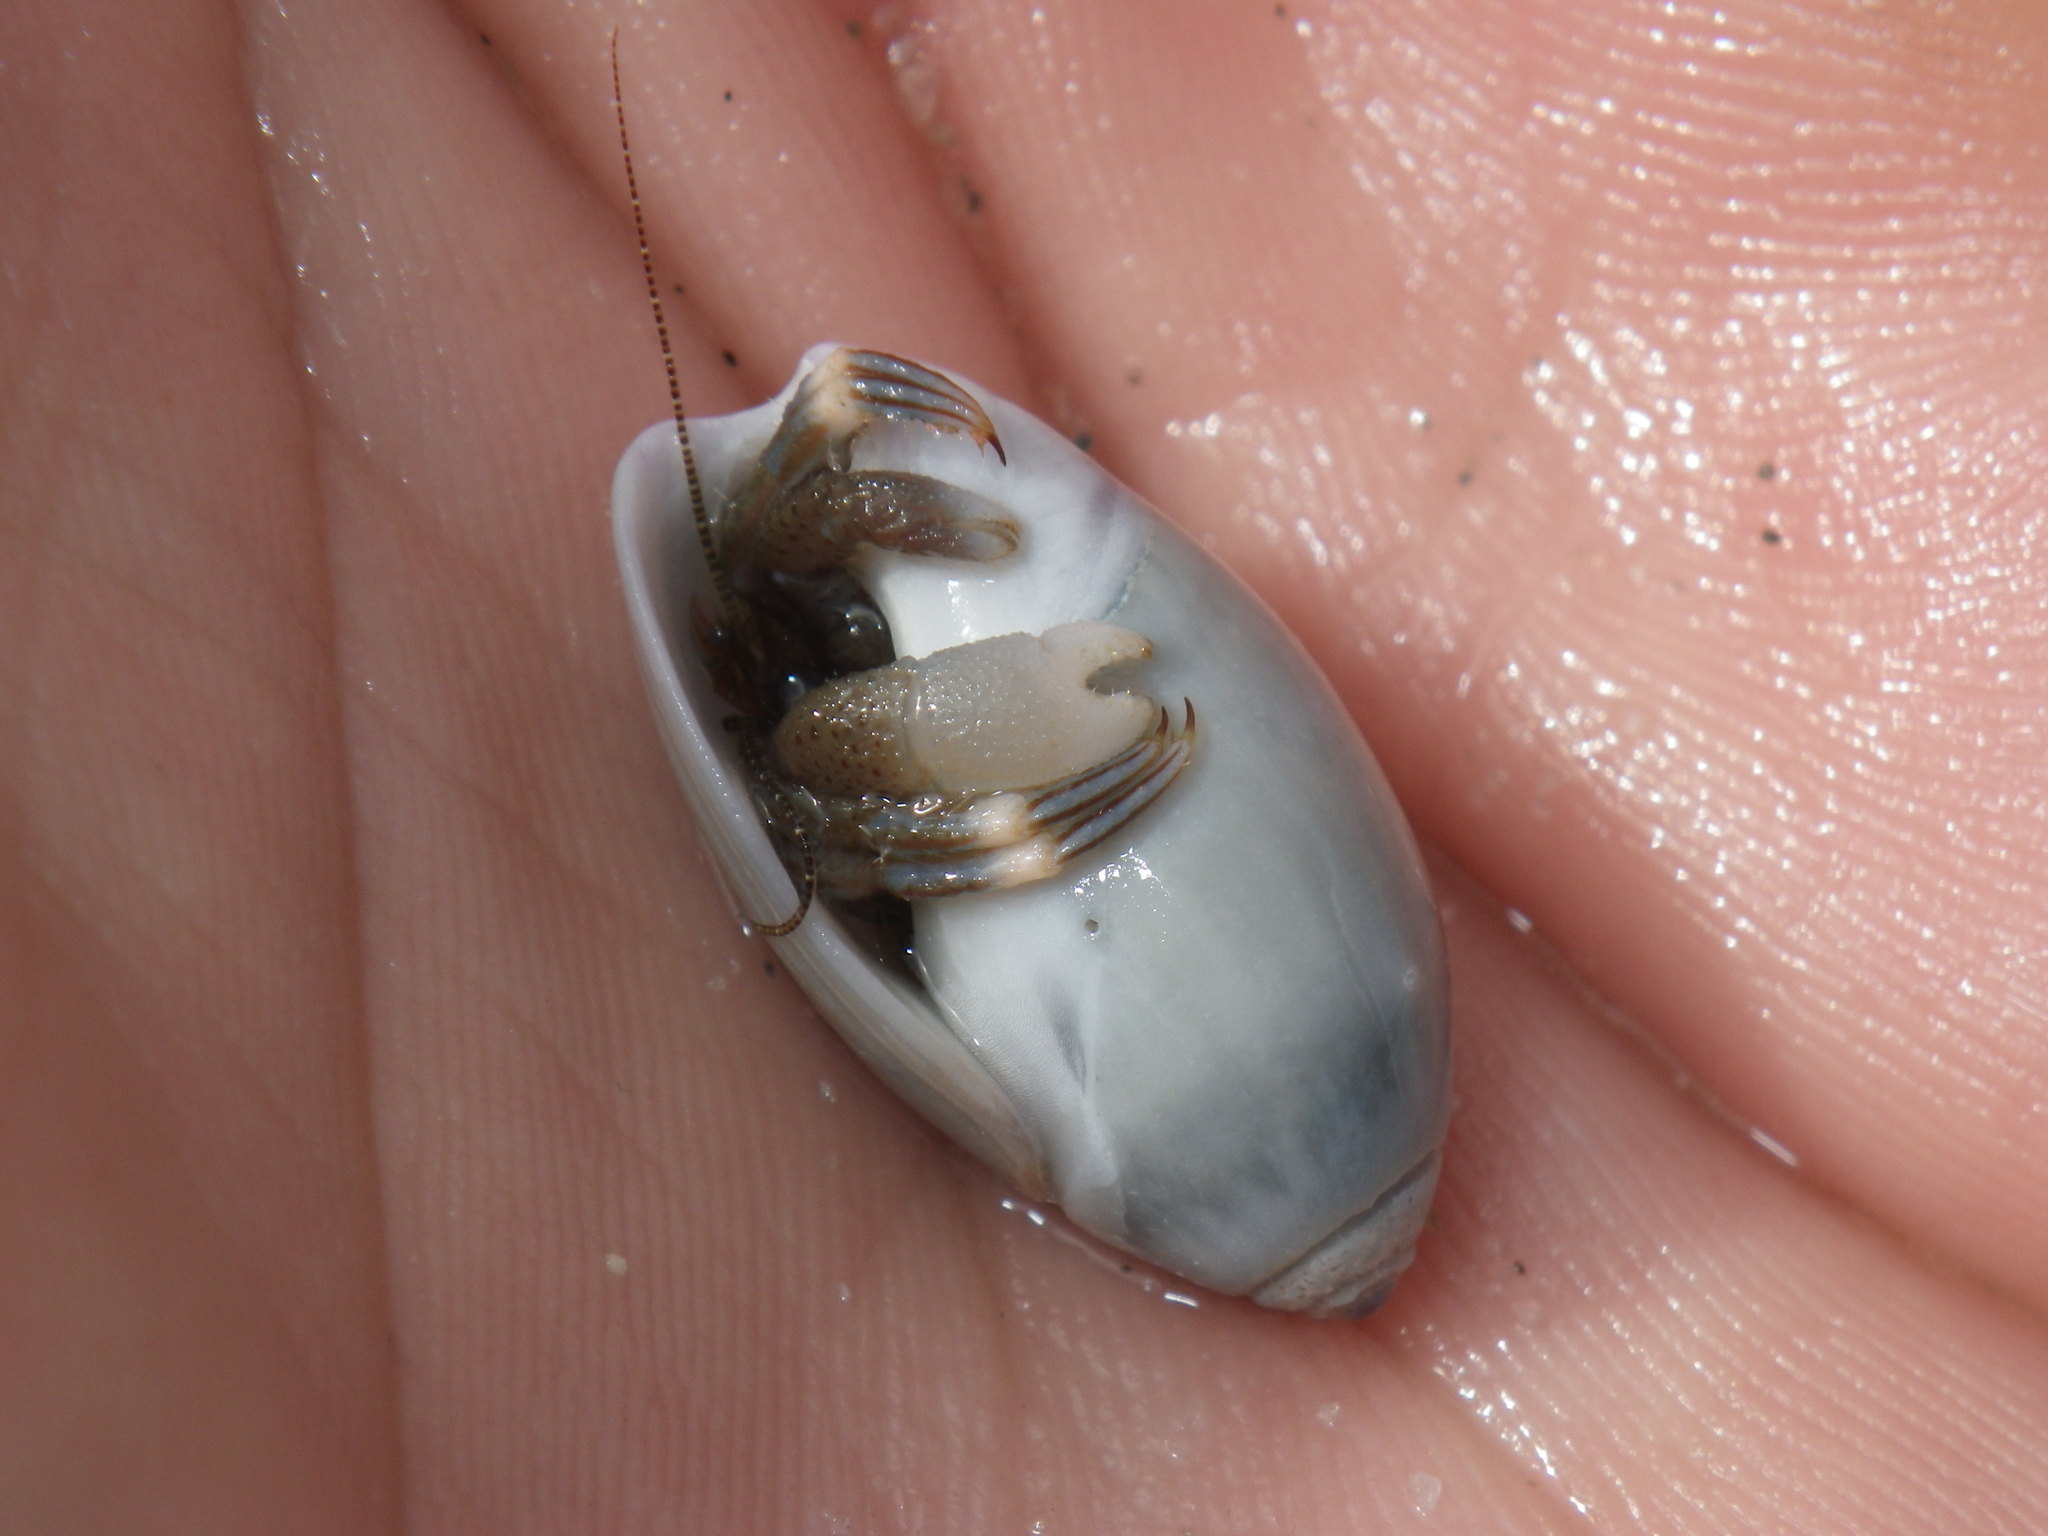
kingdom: Animalia
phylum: Arthropoda
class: Malacostraca
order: Decapoda
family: Paguridae
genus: Pagurus
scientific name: Pagurus venturensis
